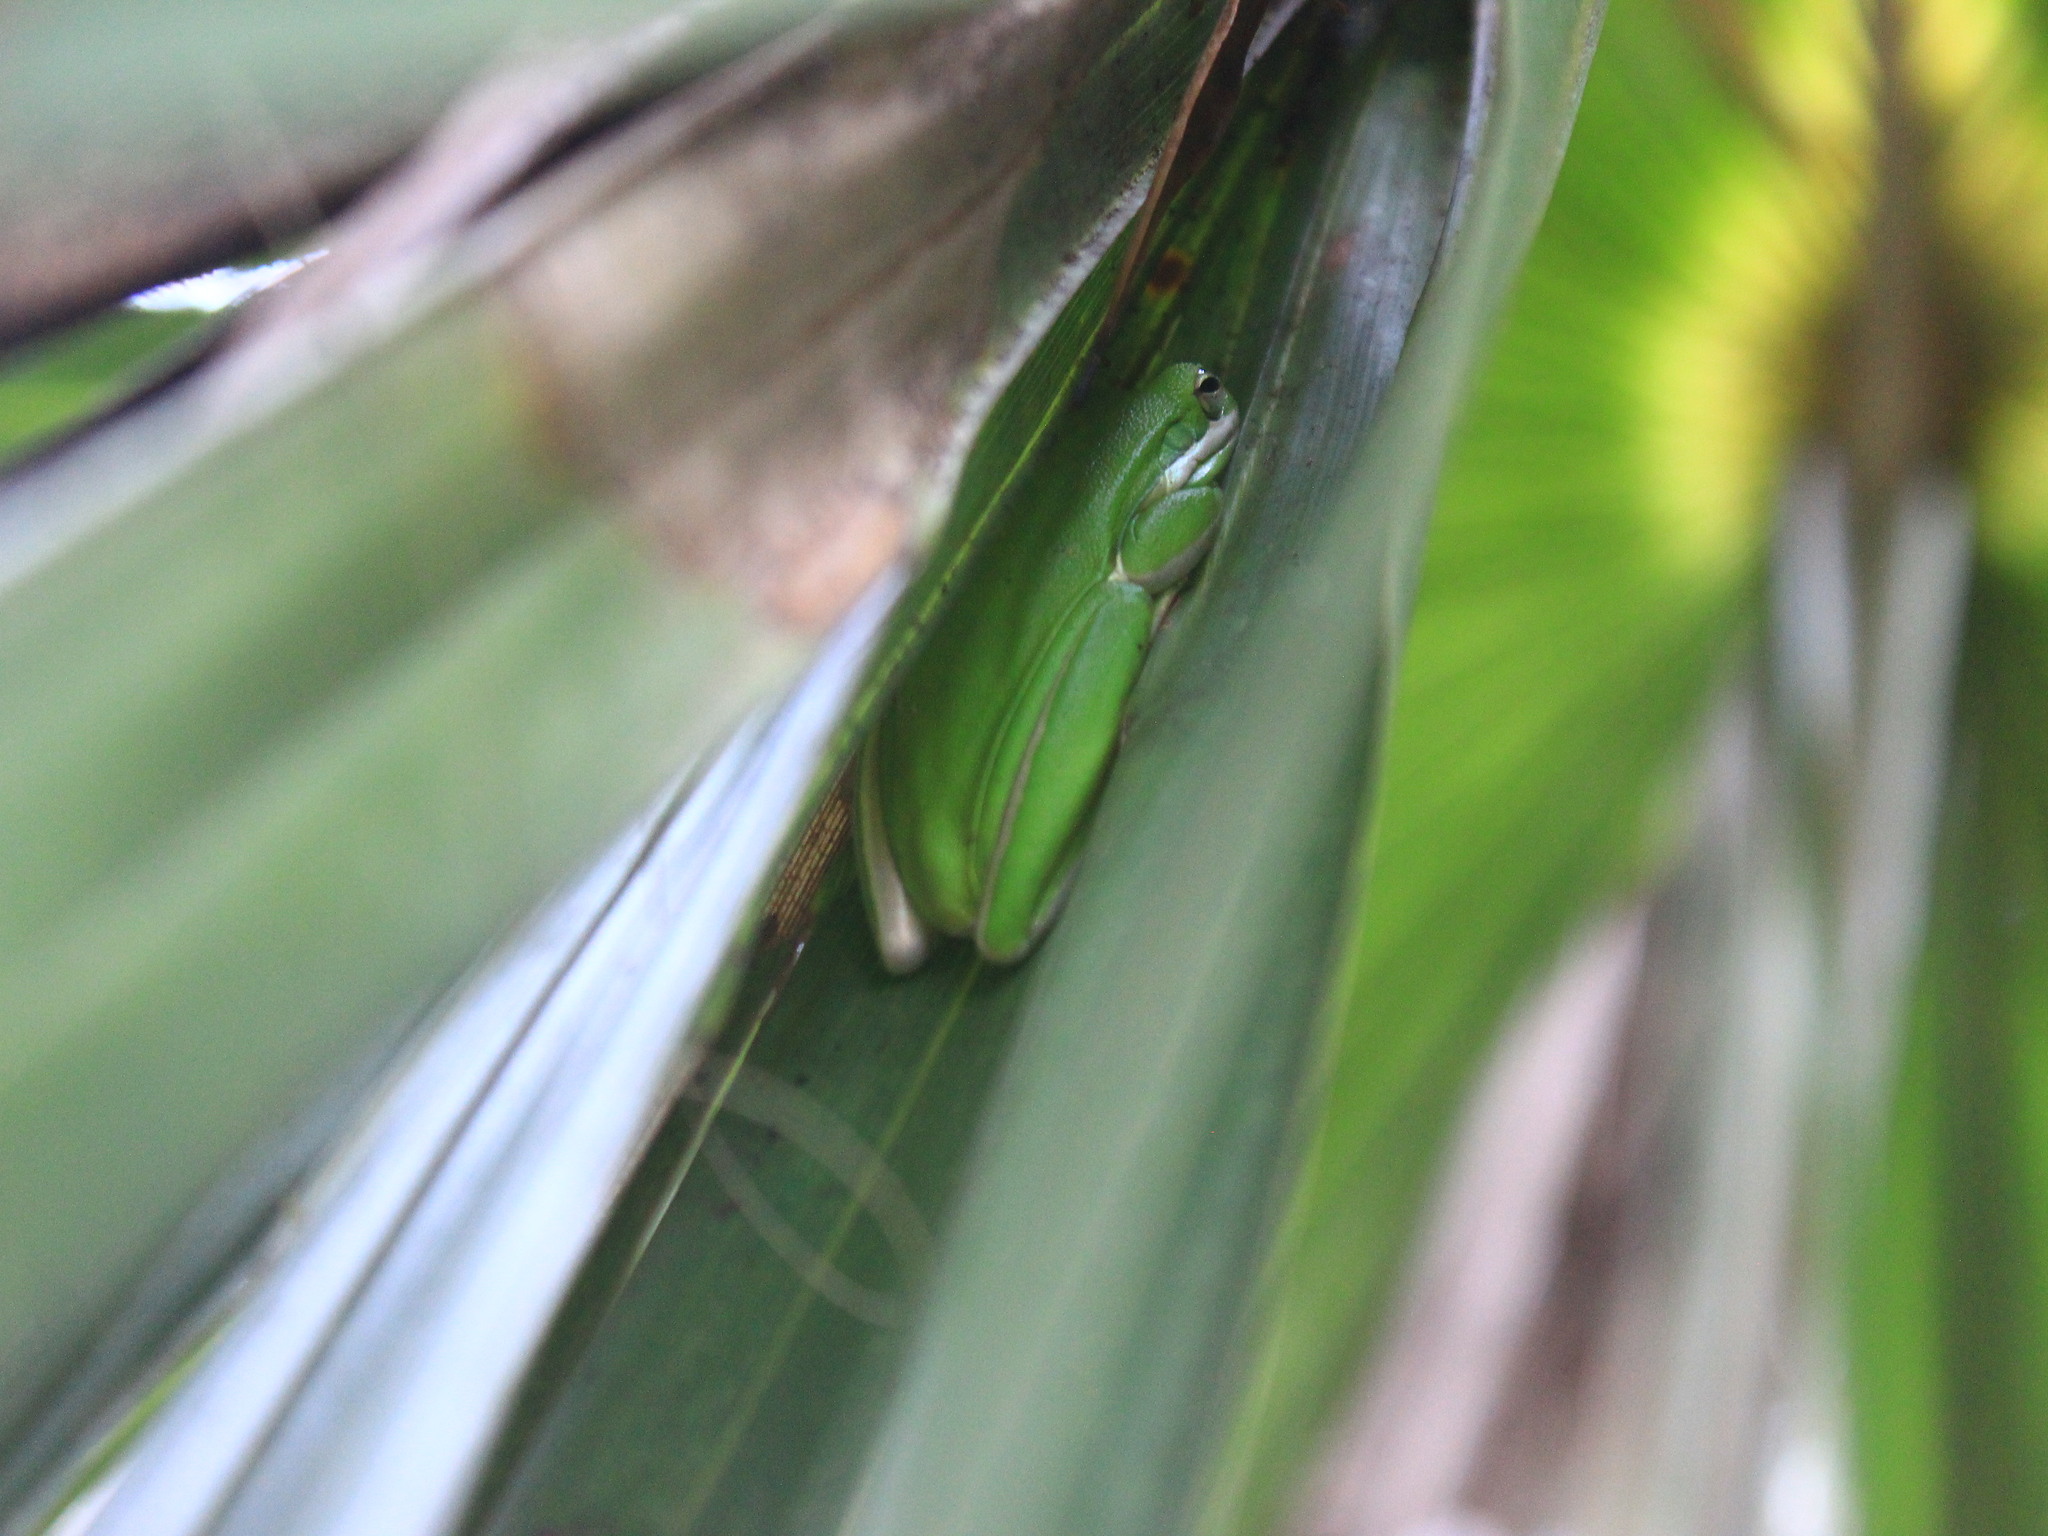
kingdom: Animalia
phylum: Chordata
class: Amphibia
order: Anura
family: Hylidae
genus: Dryophytes
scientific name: Dryophytes cinereus
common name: Green treefrog
